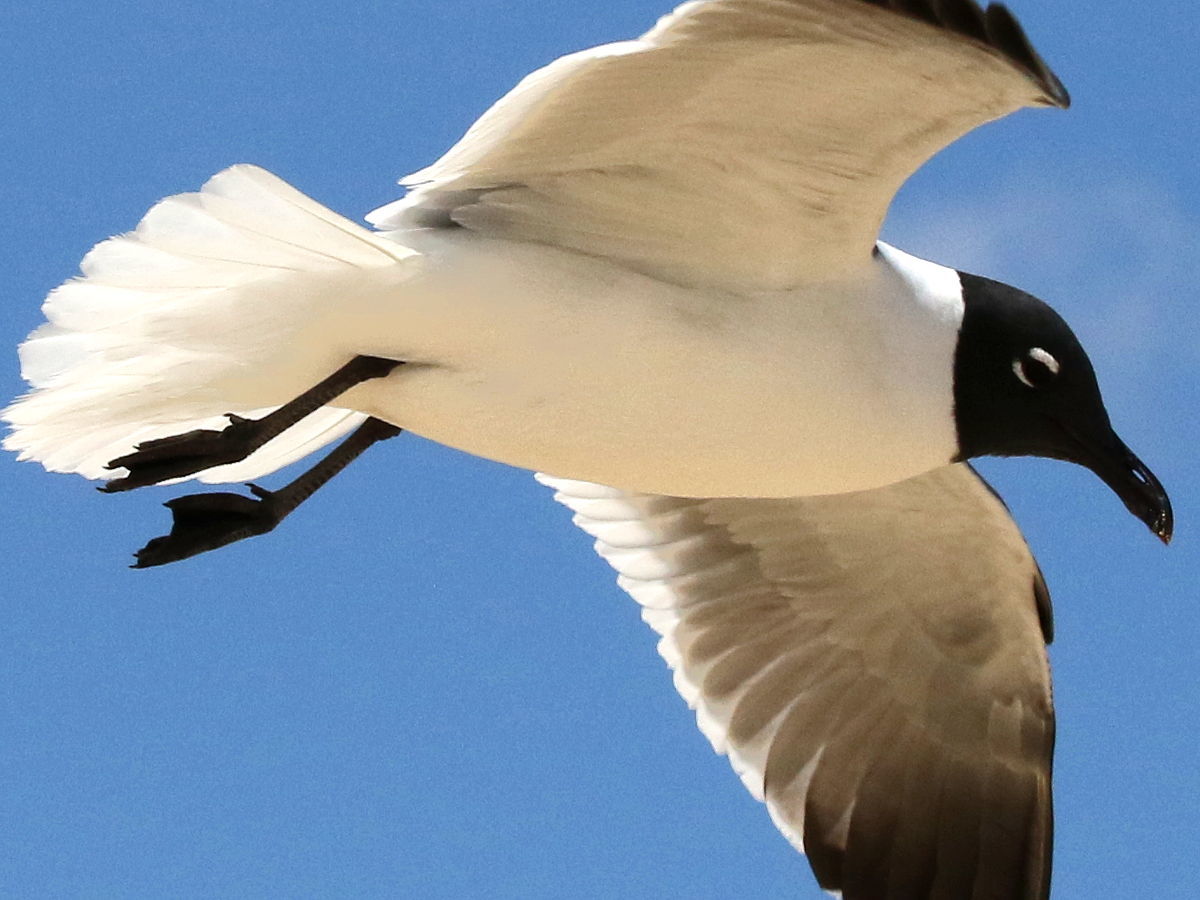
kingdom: Animalia
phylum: Chordata
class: Aves
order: Charadriiformes
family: Laridae
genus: Leucophaeus
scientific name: Leucophaeus atricilla
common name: Laughing gull
